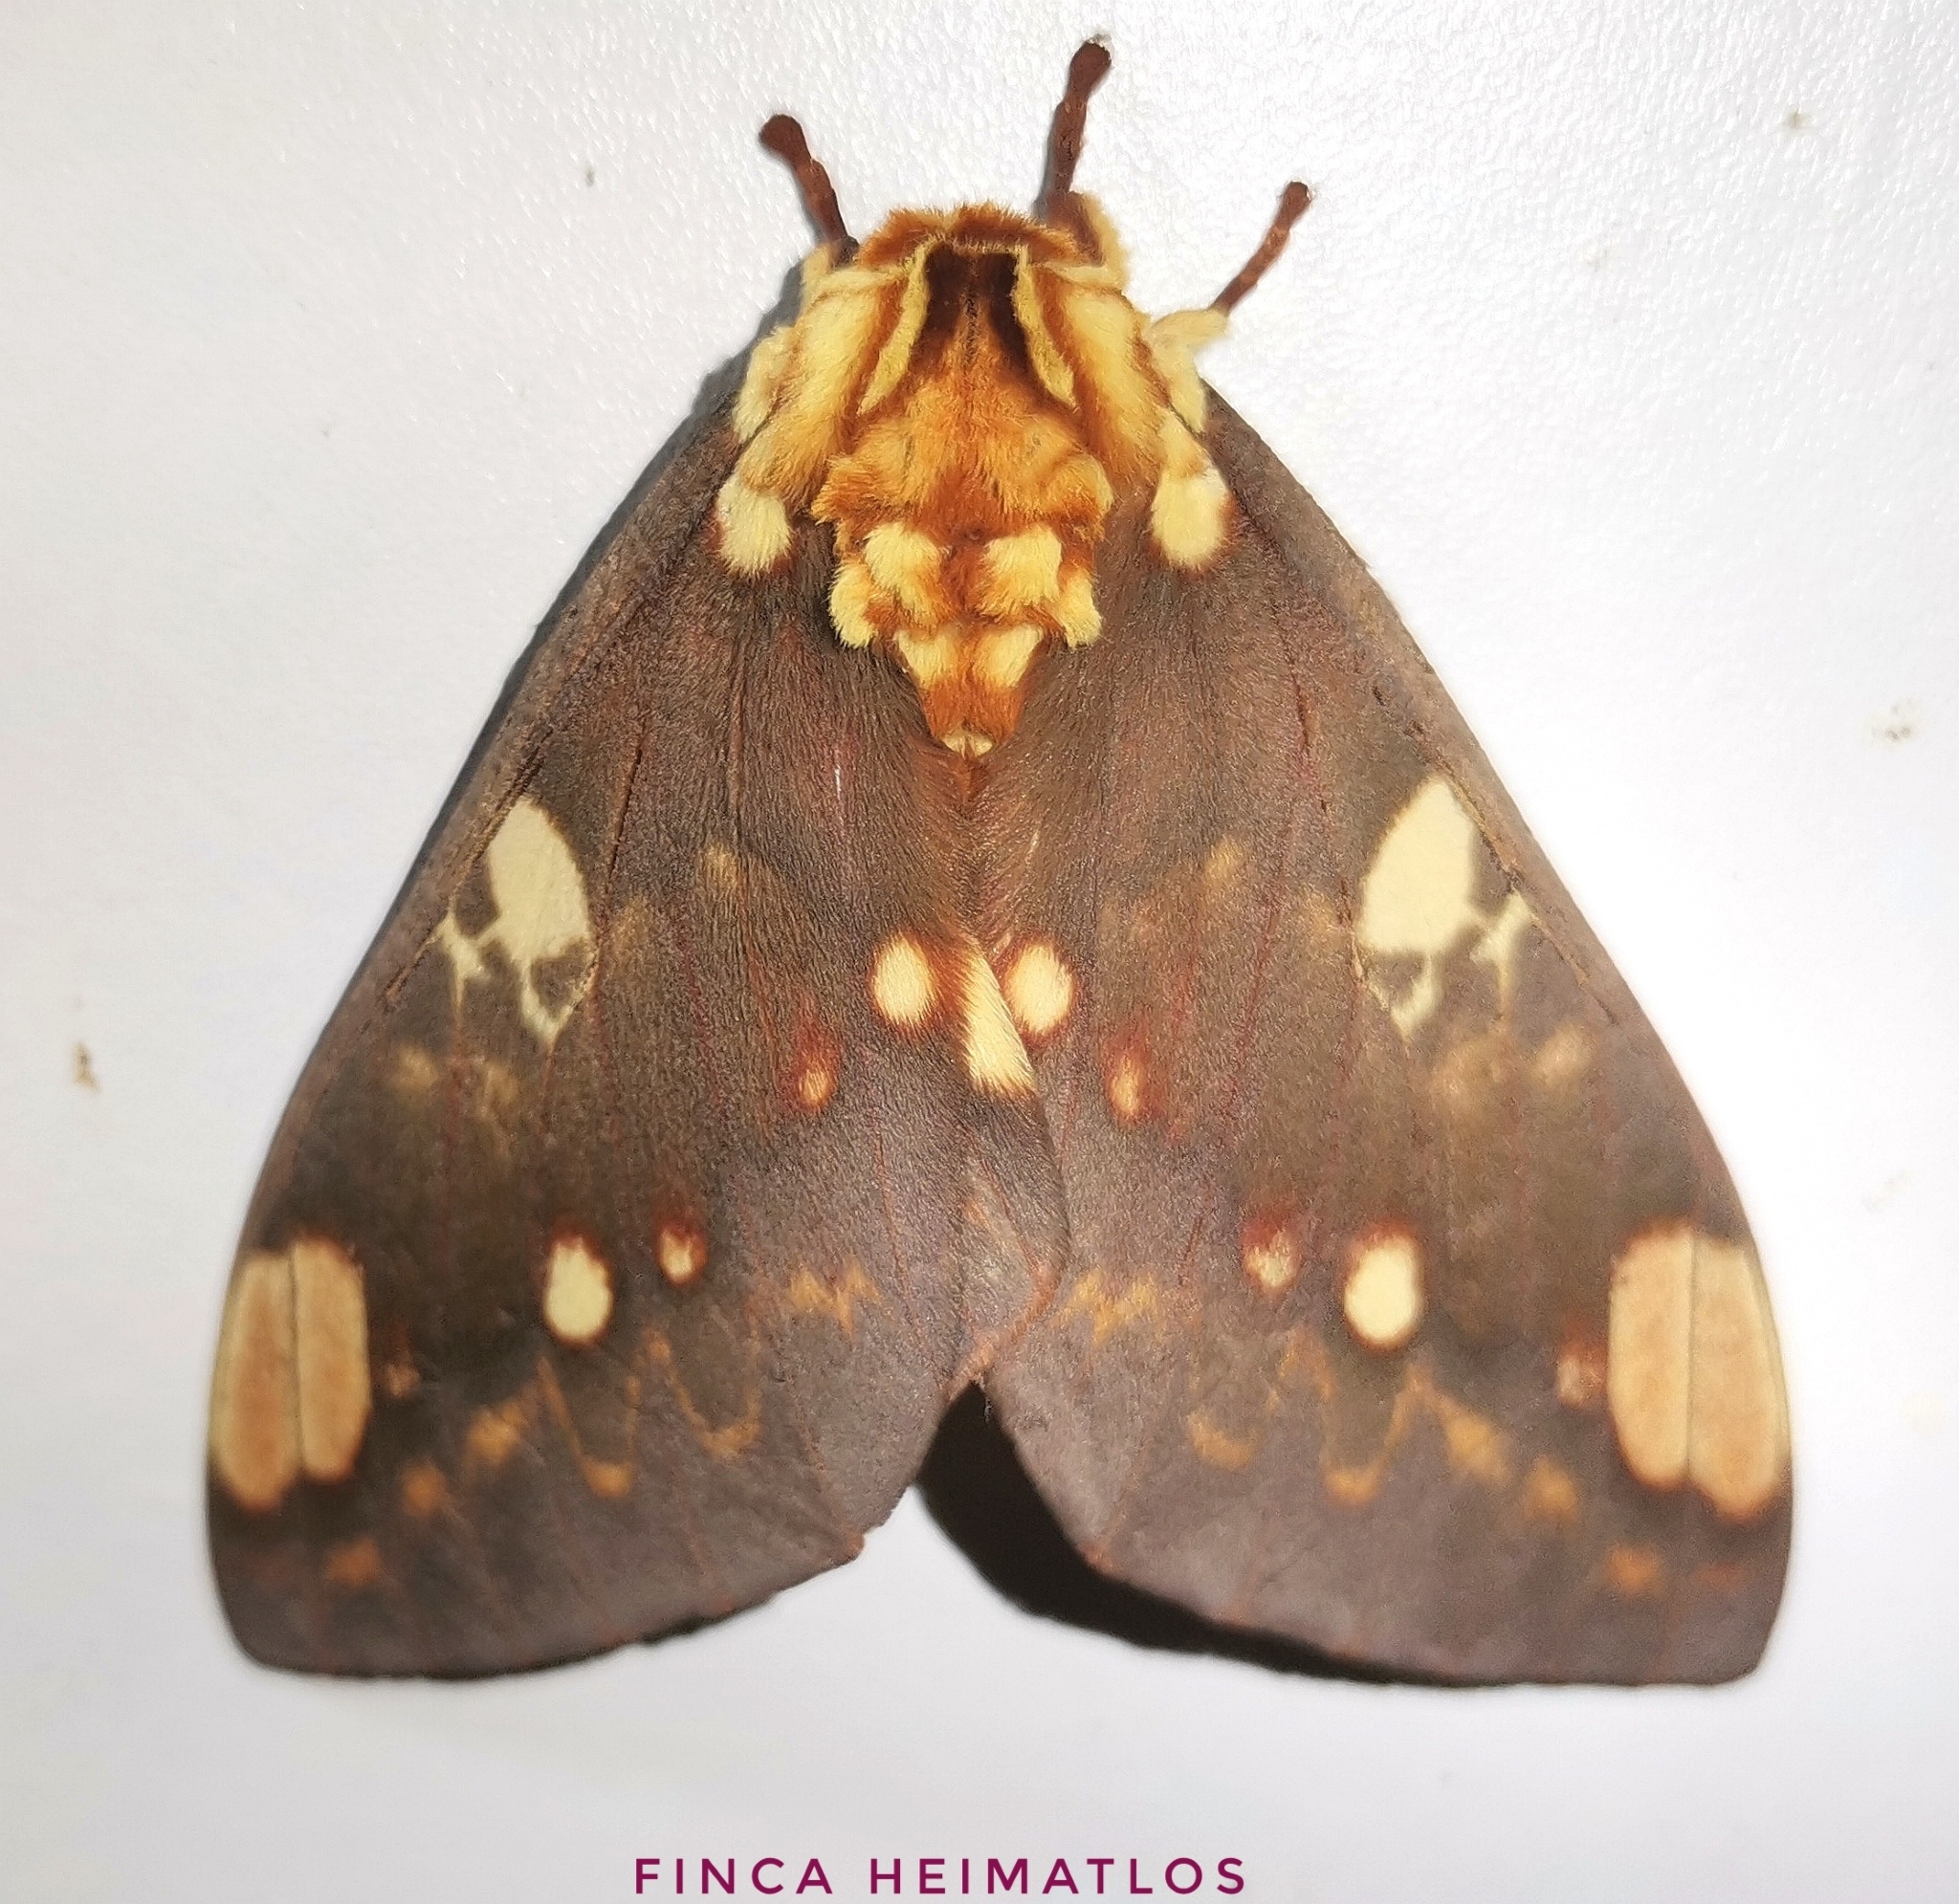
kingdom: Animalia
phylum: Arthropoda
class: Insecta
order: Lepidoptera
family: Saturniidae
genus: Citheronia
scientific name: Citheronia hamifera
